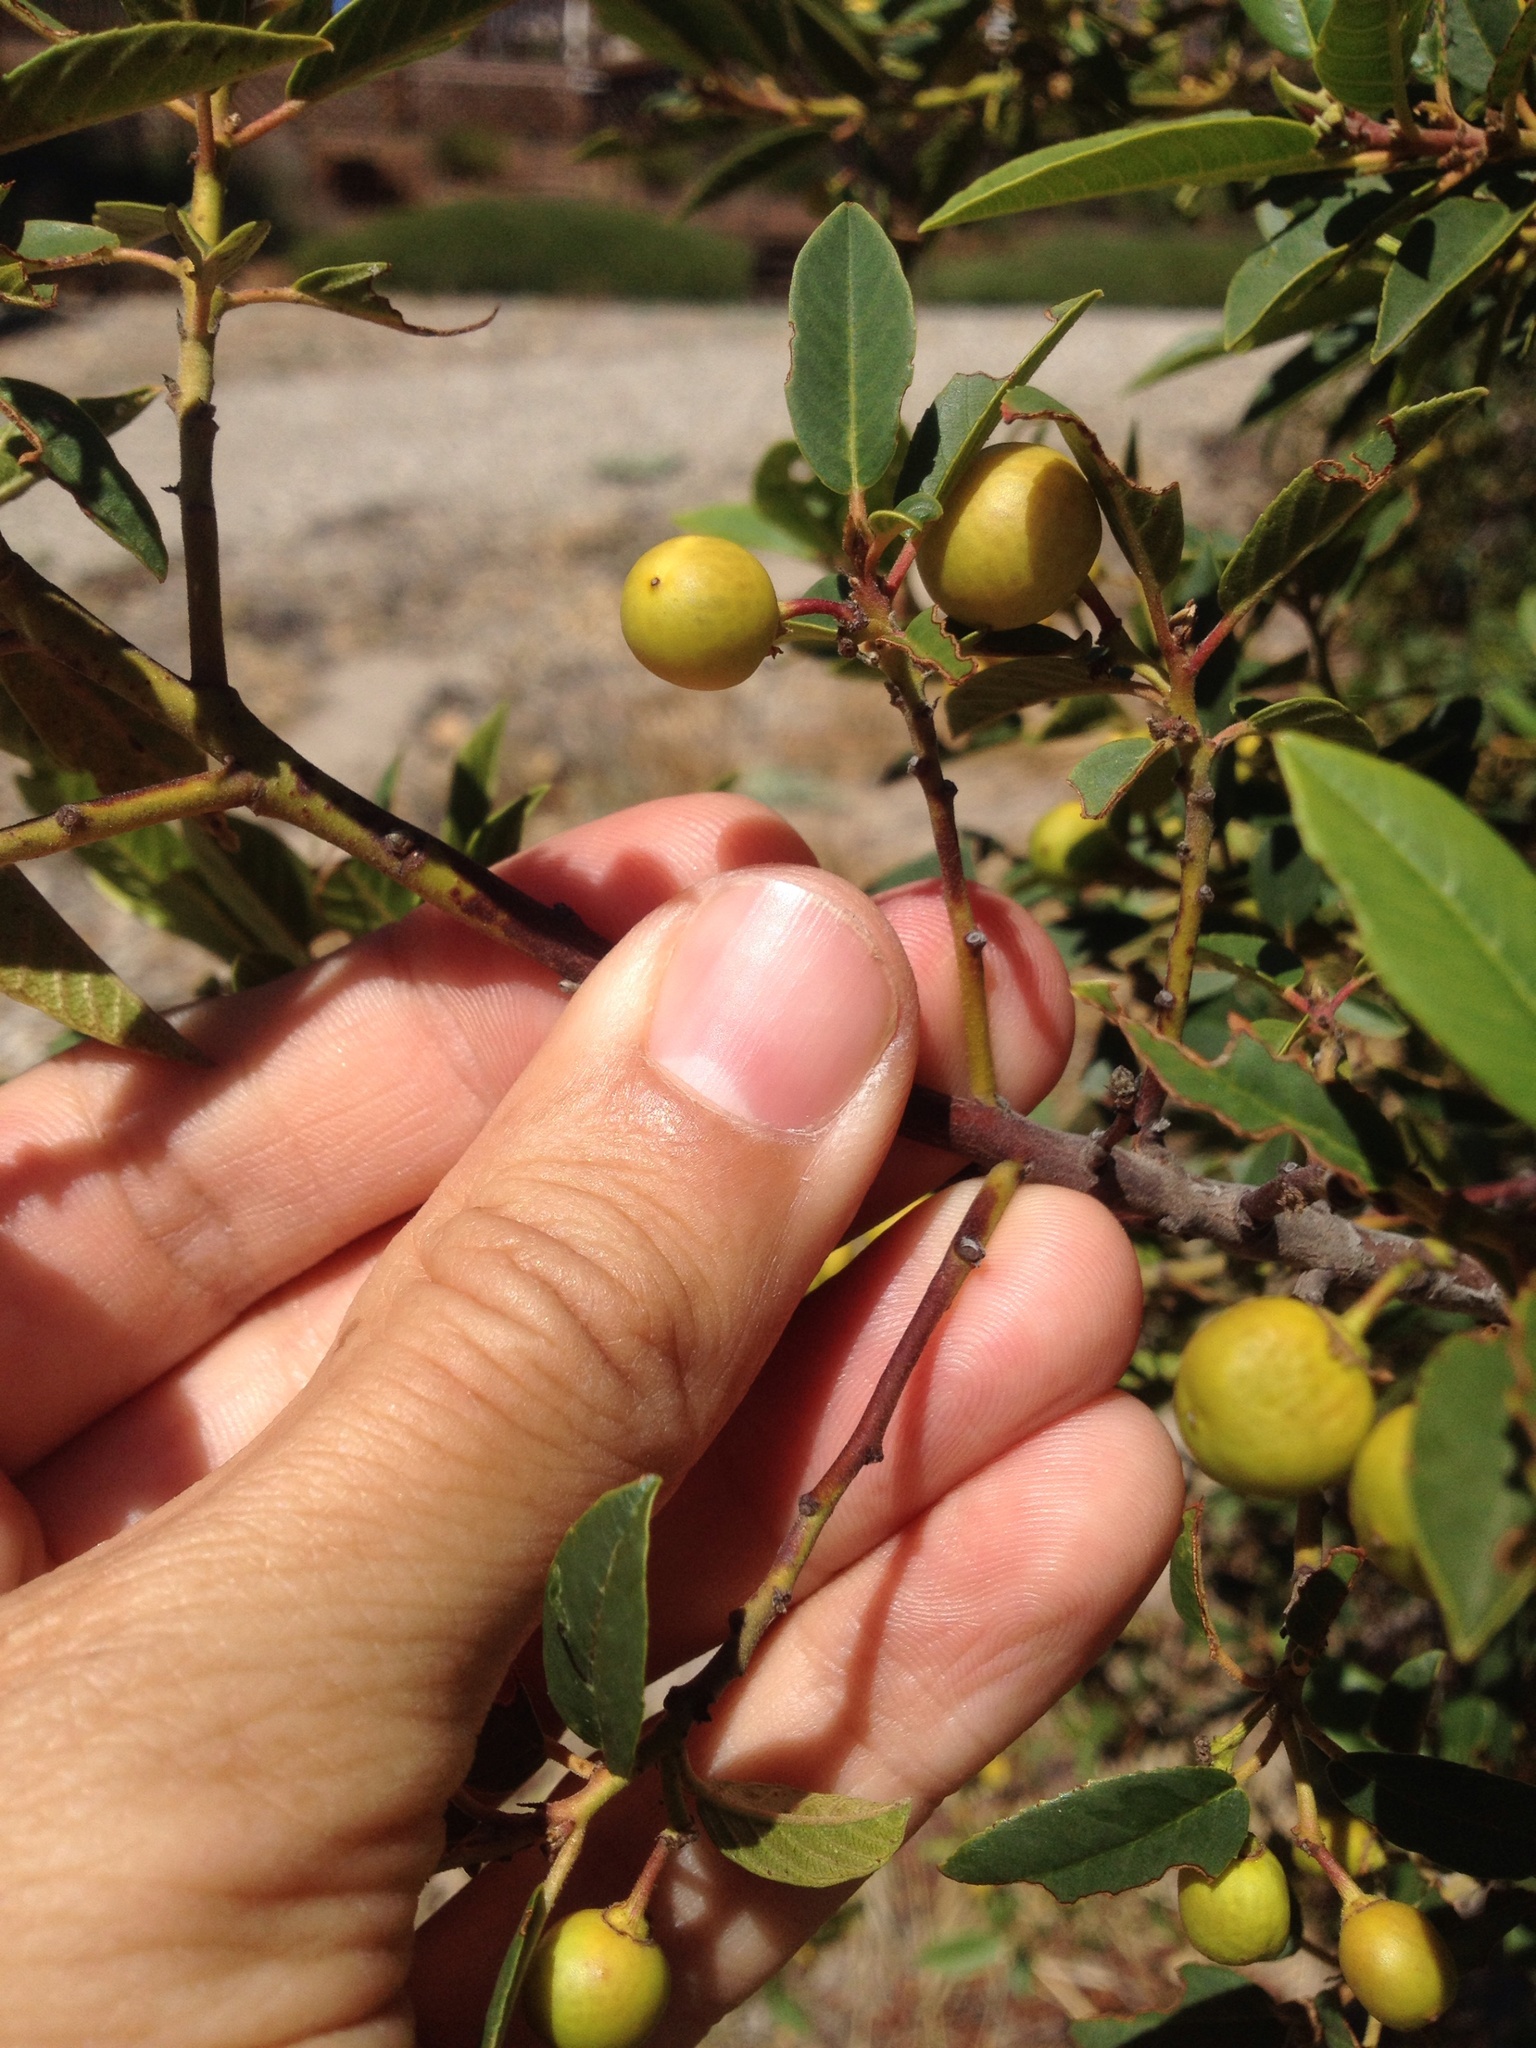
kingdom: Plantae
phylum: Tracheophyta
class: Magnoliopsida
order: Rosales
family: Rhamnaceae
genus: Frangula
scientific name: Frangula californica
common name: California buckthorn
